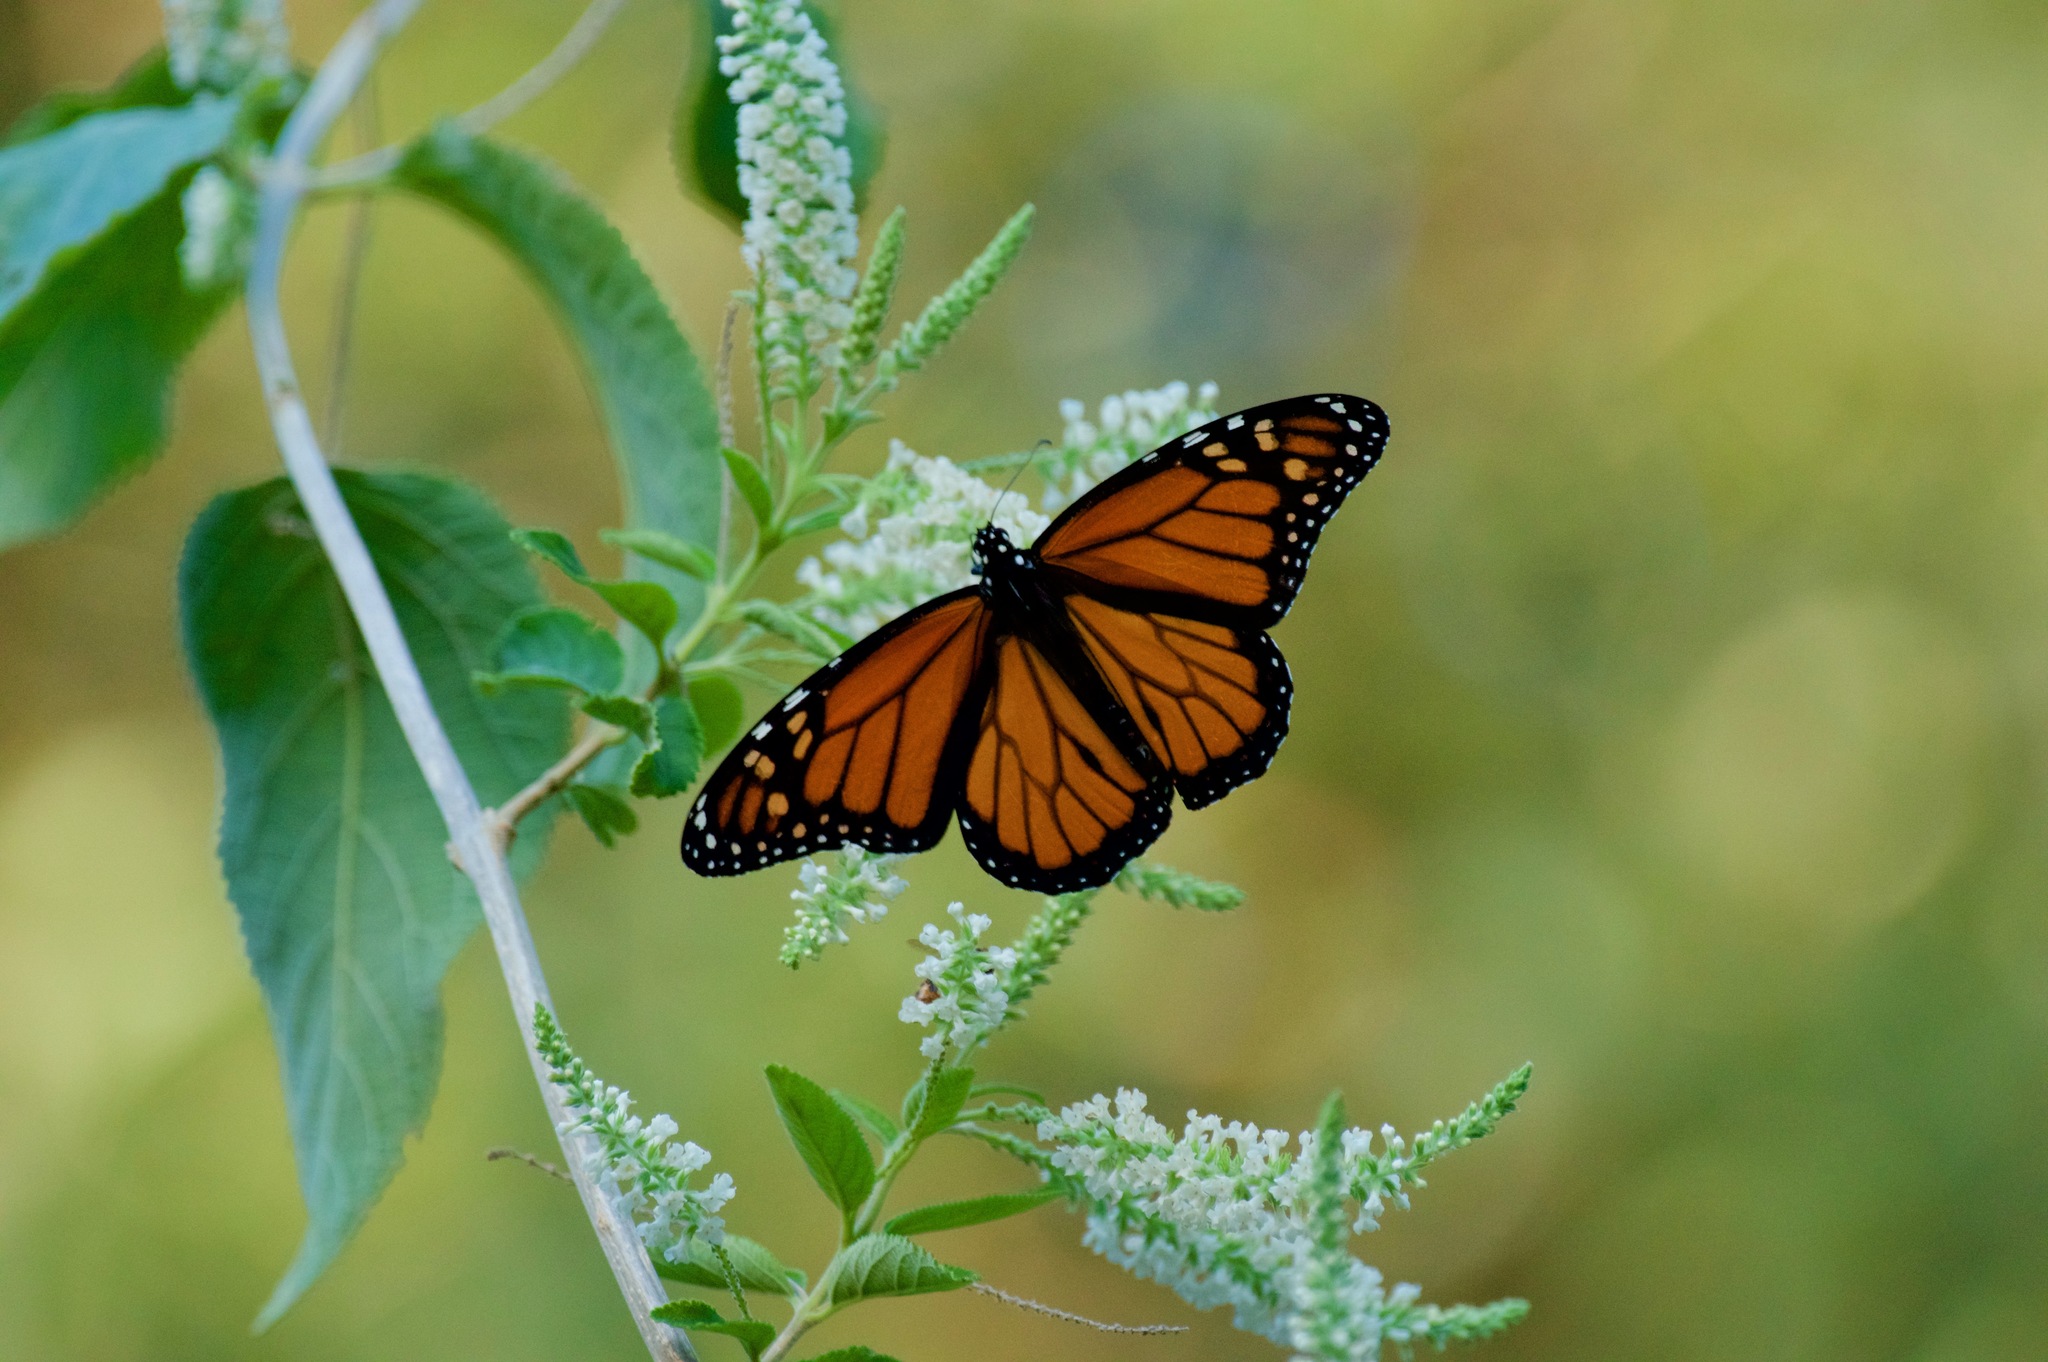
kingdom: Animalia
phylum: Arthropoda
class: Insecta
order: Lepidoptera
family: Nymphalidae
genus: Danaus
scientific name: Danaus plexippus
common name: Monarch
